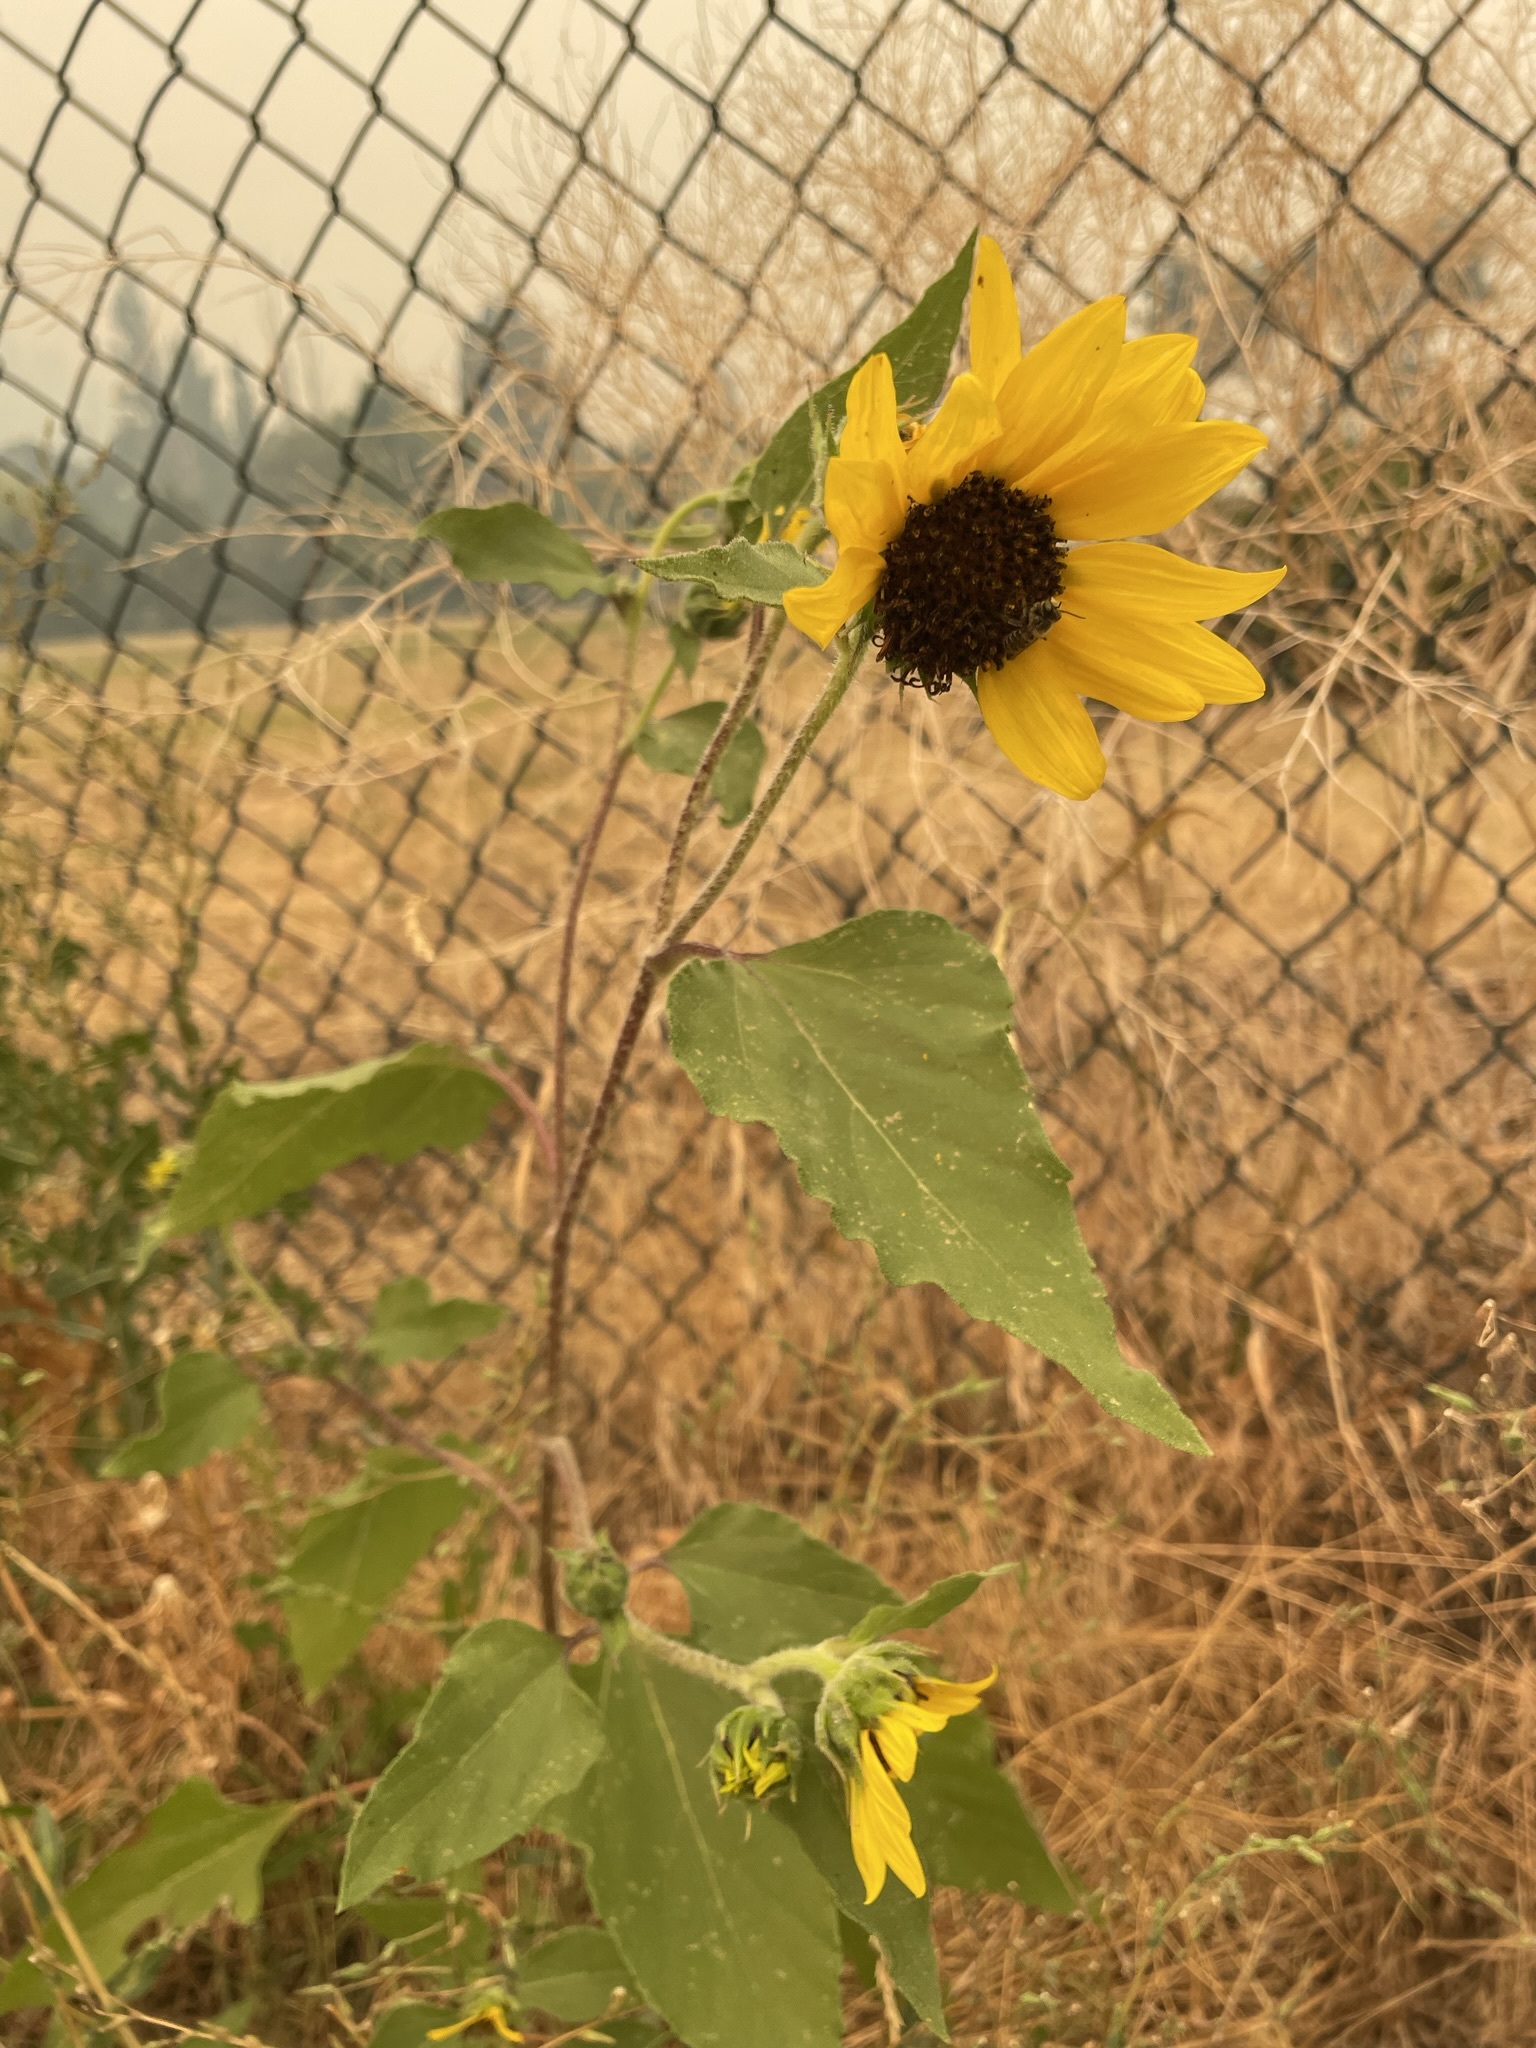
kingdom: Plantae
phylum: Tracheophyta
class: Magnoliopsida
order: Asterales
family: Asteraceae
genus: Helianthus
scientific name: Helianthus annuus
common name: Sunflower
